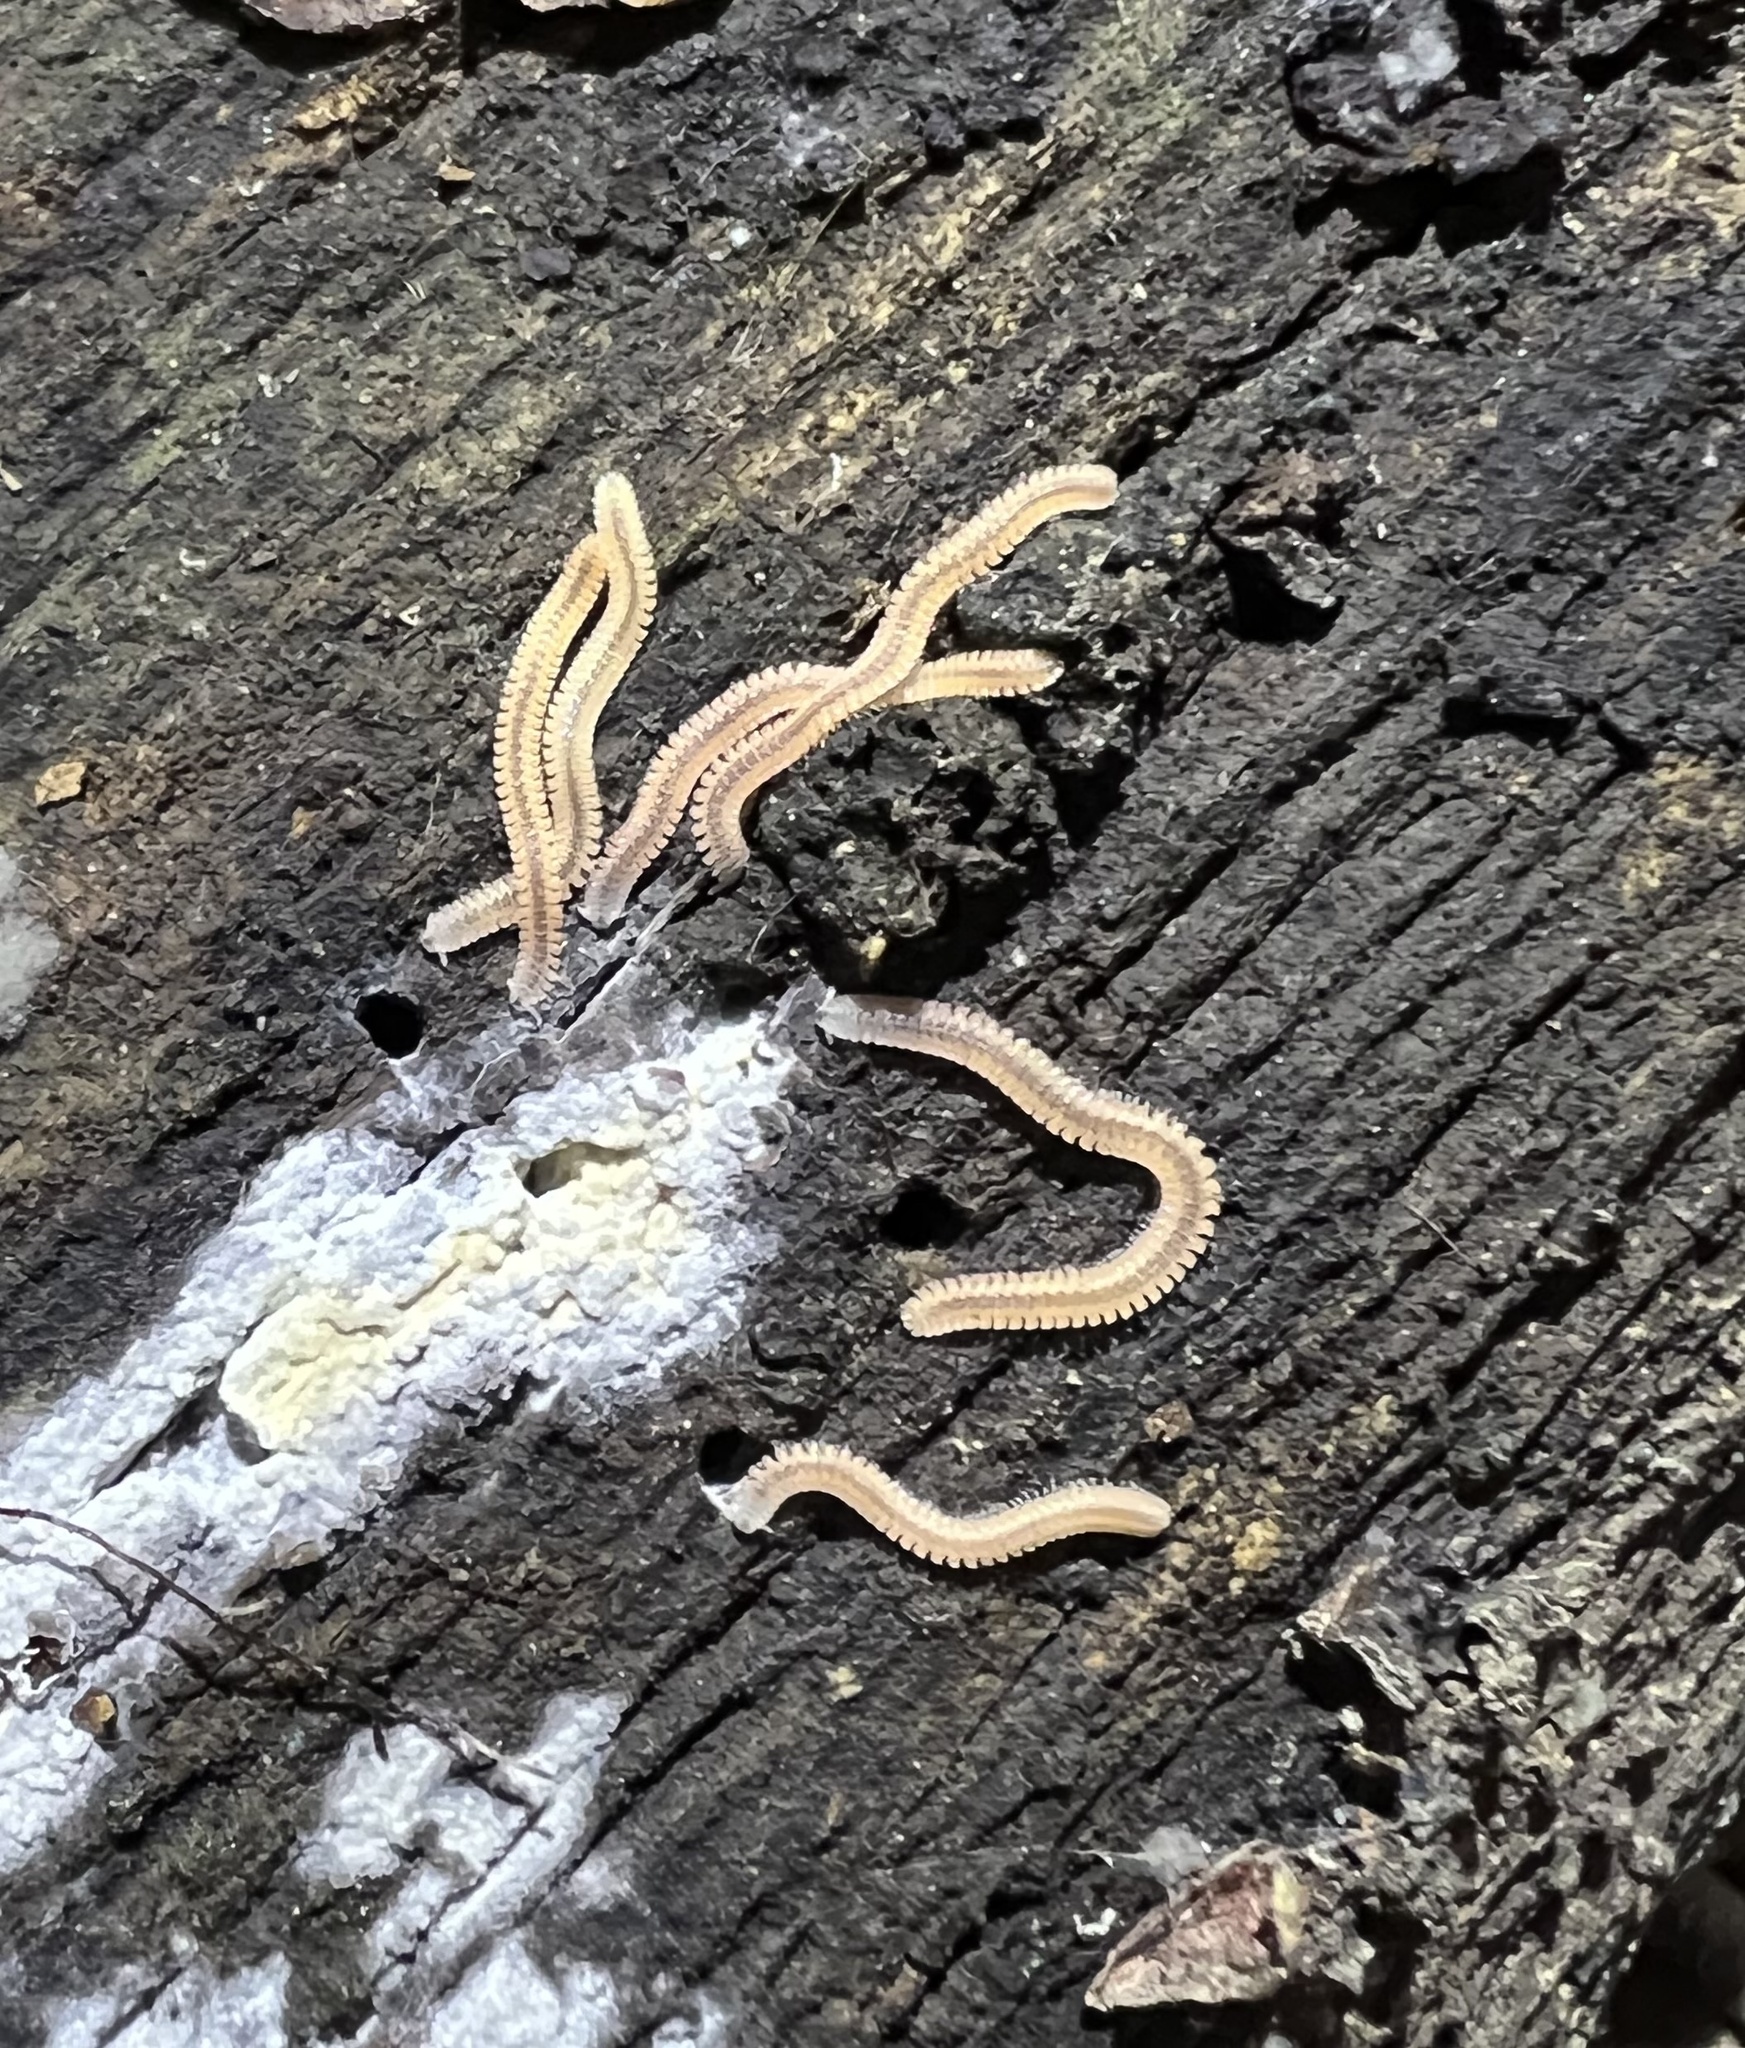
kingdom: Animalia
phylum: Arthropoda
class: Diplopoda
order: Platydesmida
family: Andrognathidae
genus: Gosodesmus
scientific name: Gosodesmus claremontus
